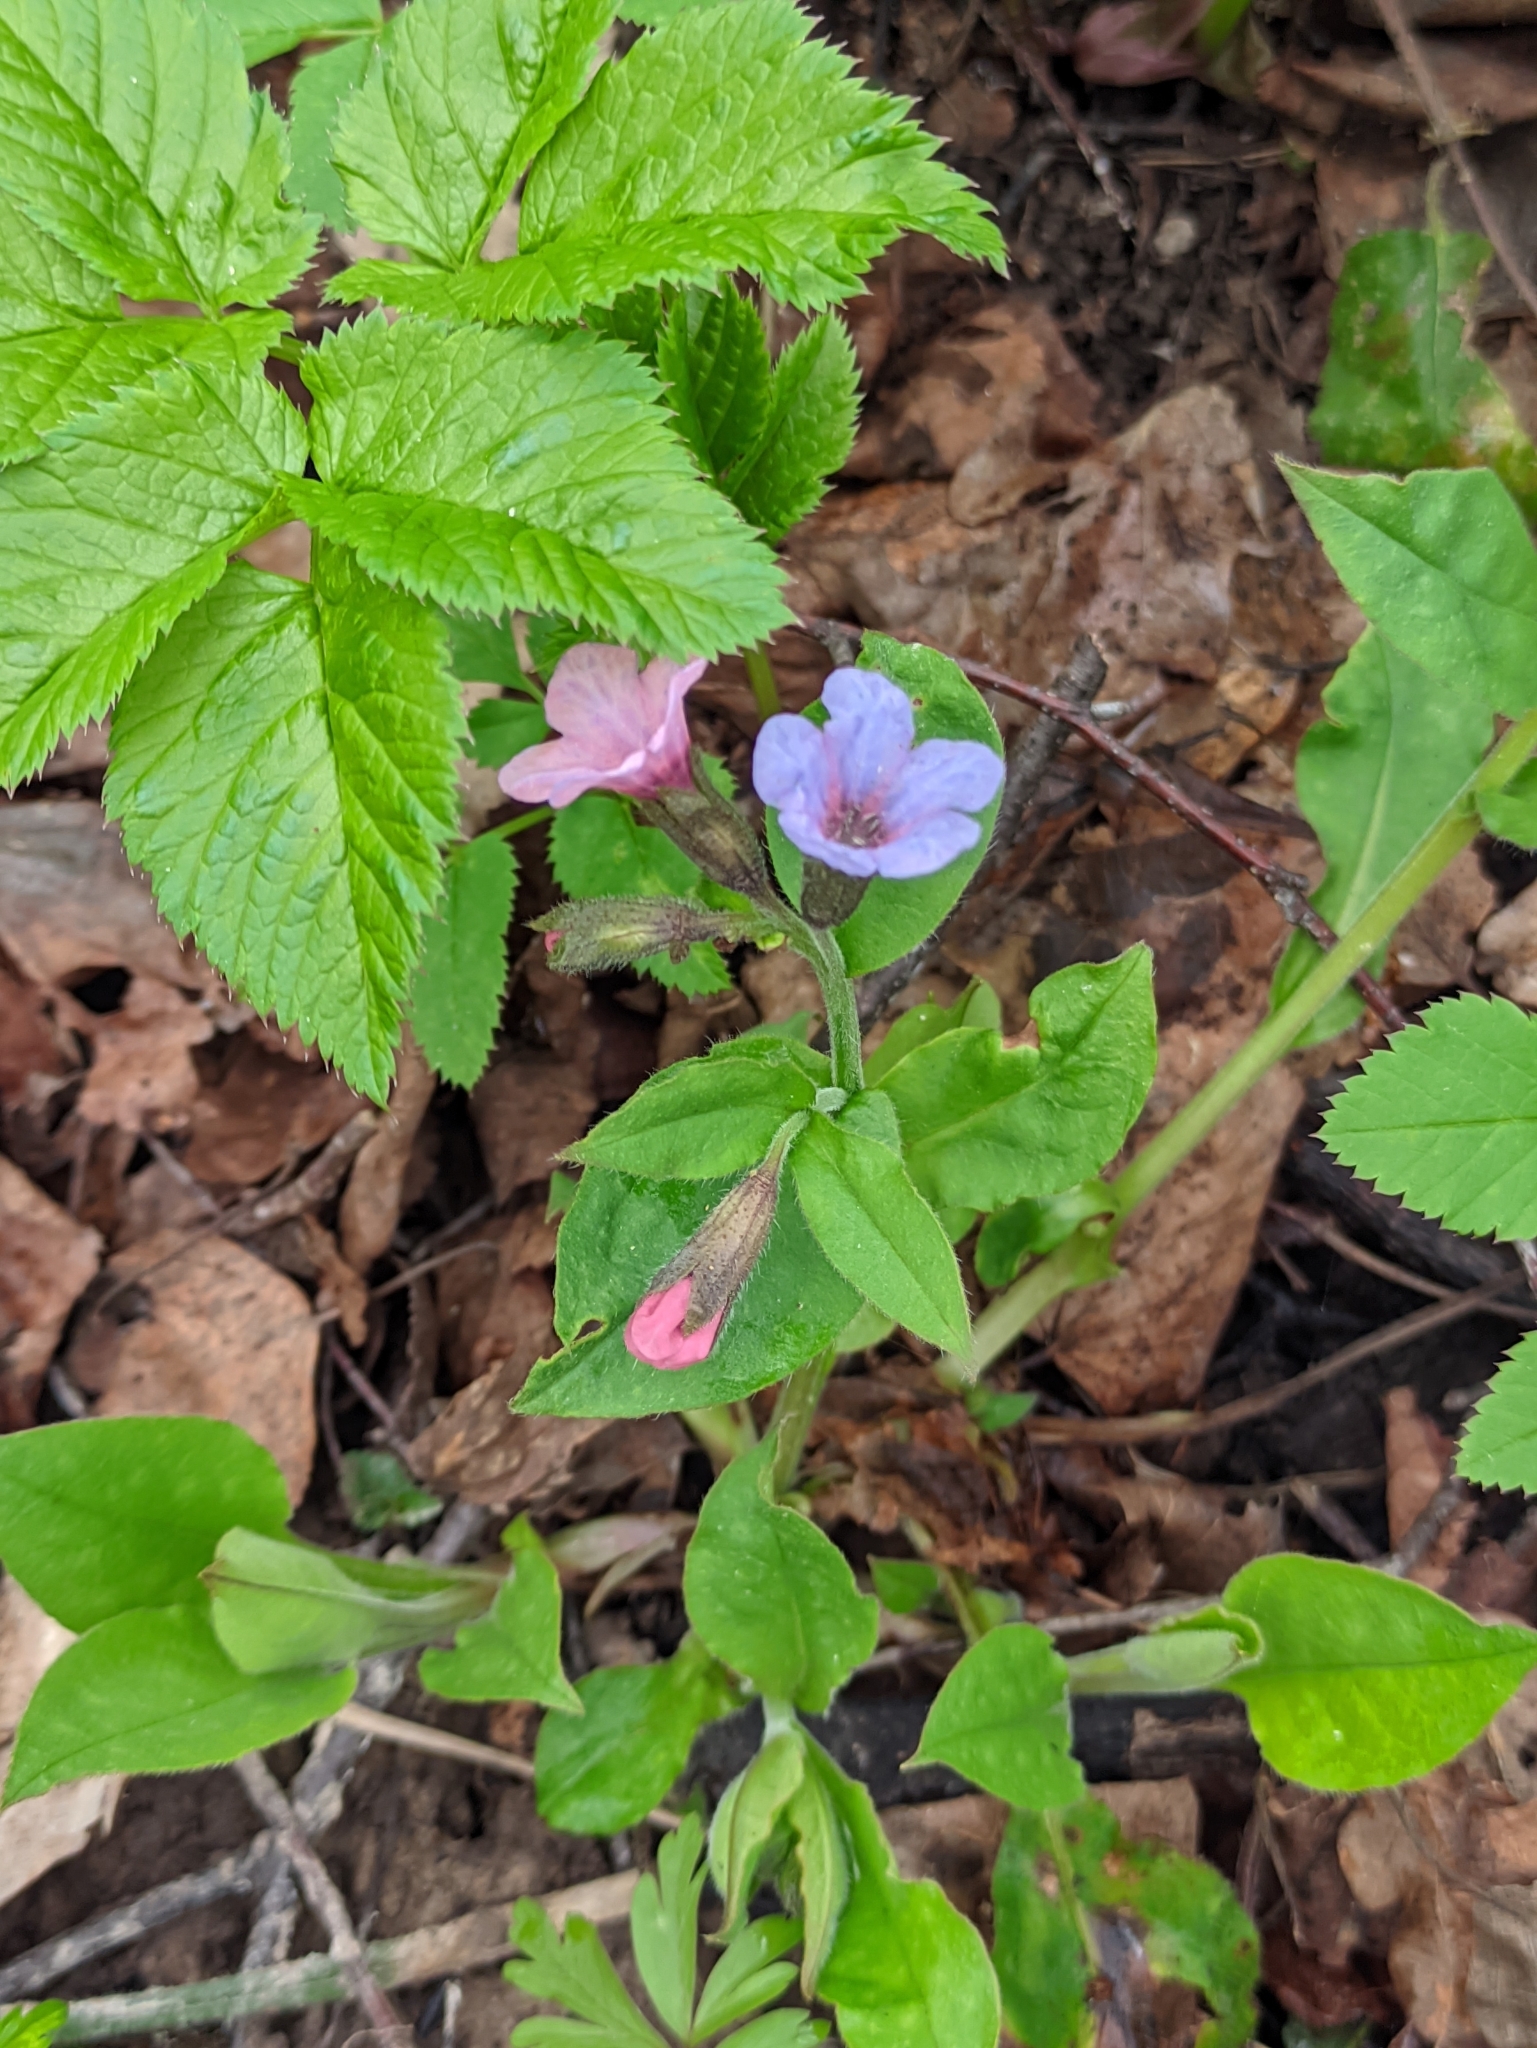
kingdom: Plantae
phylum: Tracheophyta
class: Magnoliopsida
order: Boraginales
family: Boraginaceae
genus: Pulmonaria
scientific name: Pulmonaria obscura
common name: Suffolk lungwort
